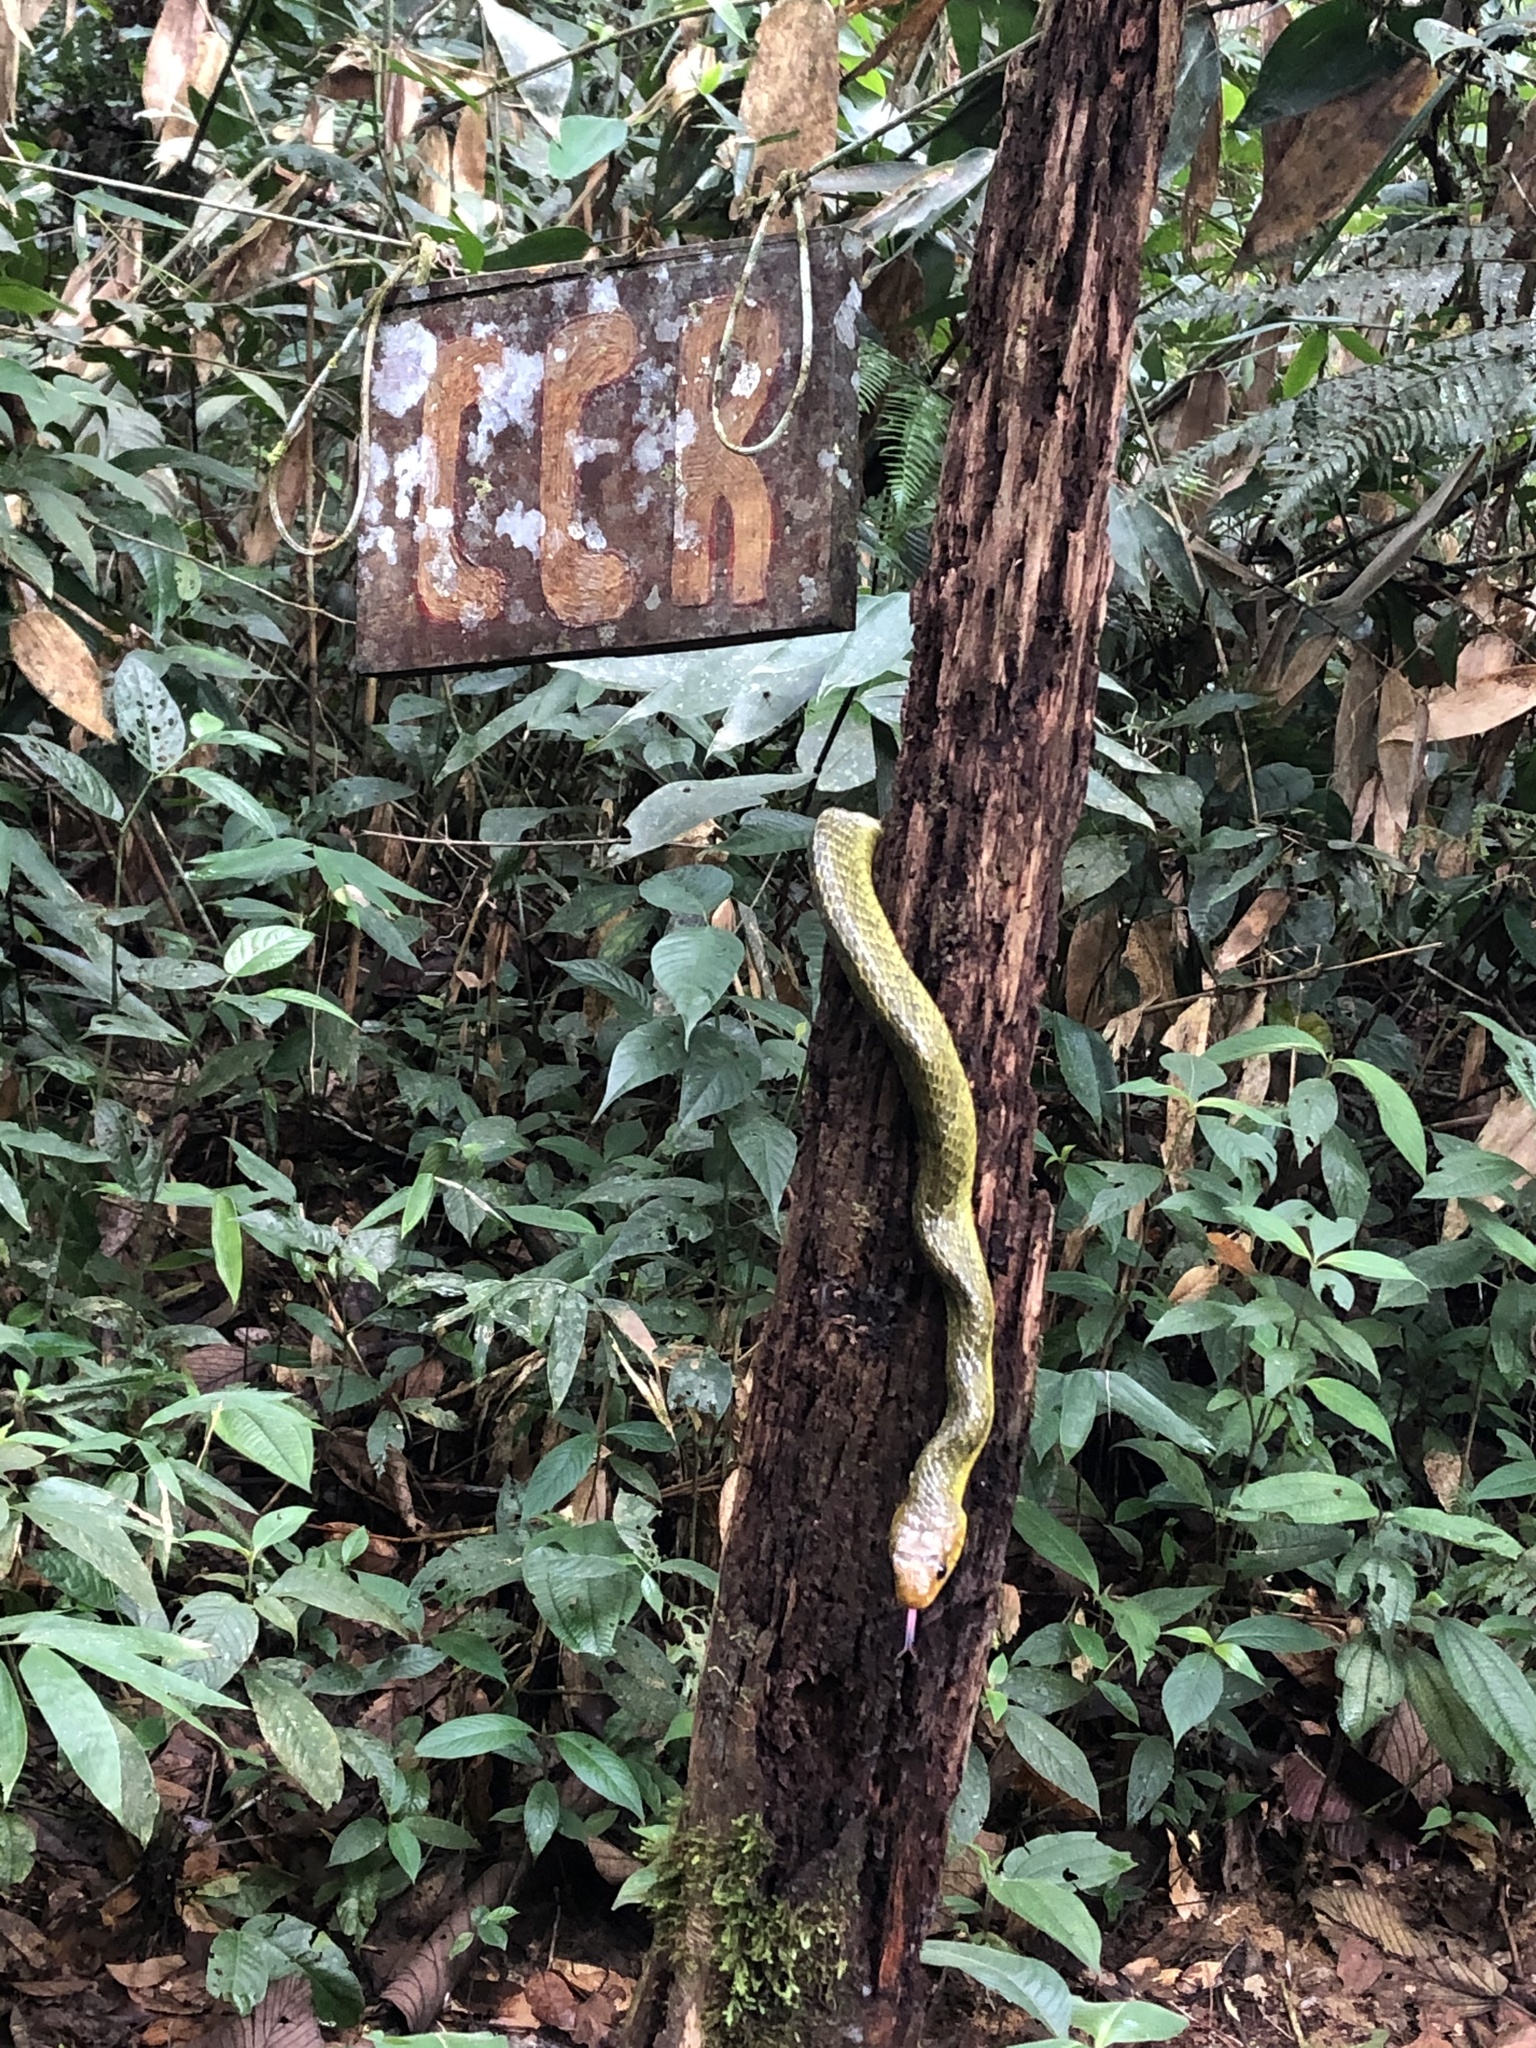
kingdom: Animalia
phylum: Chordata
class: Squamata
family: Colubridae
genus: Spilotes
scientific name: Spilotes sulphureus
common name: Amazon puffing snake
